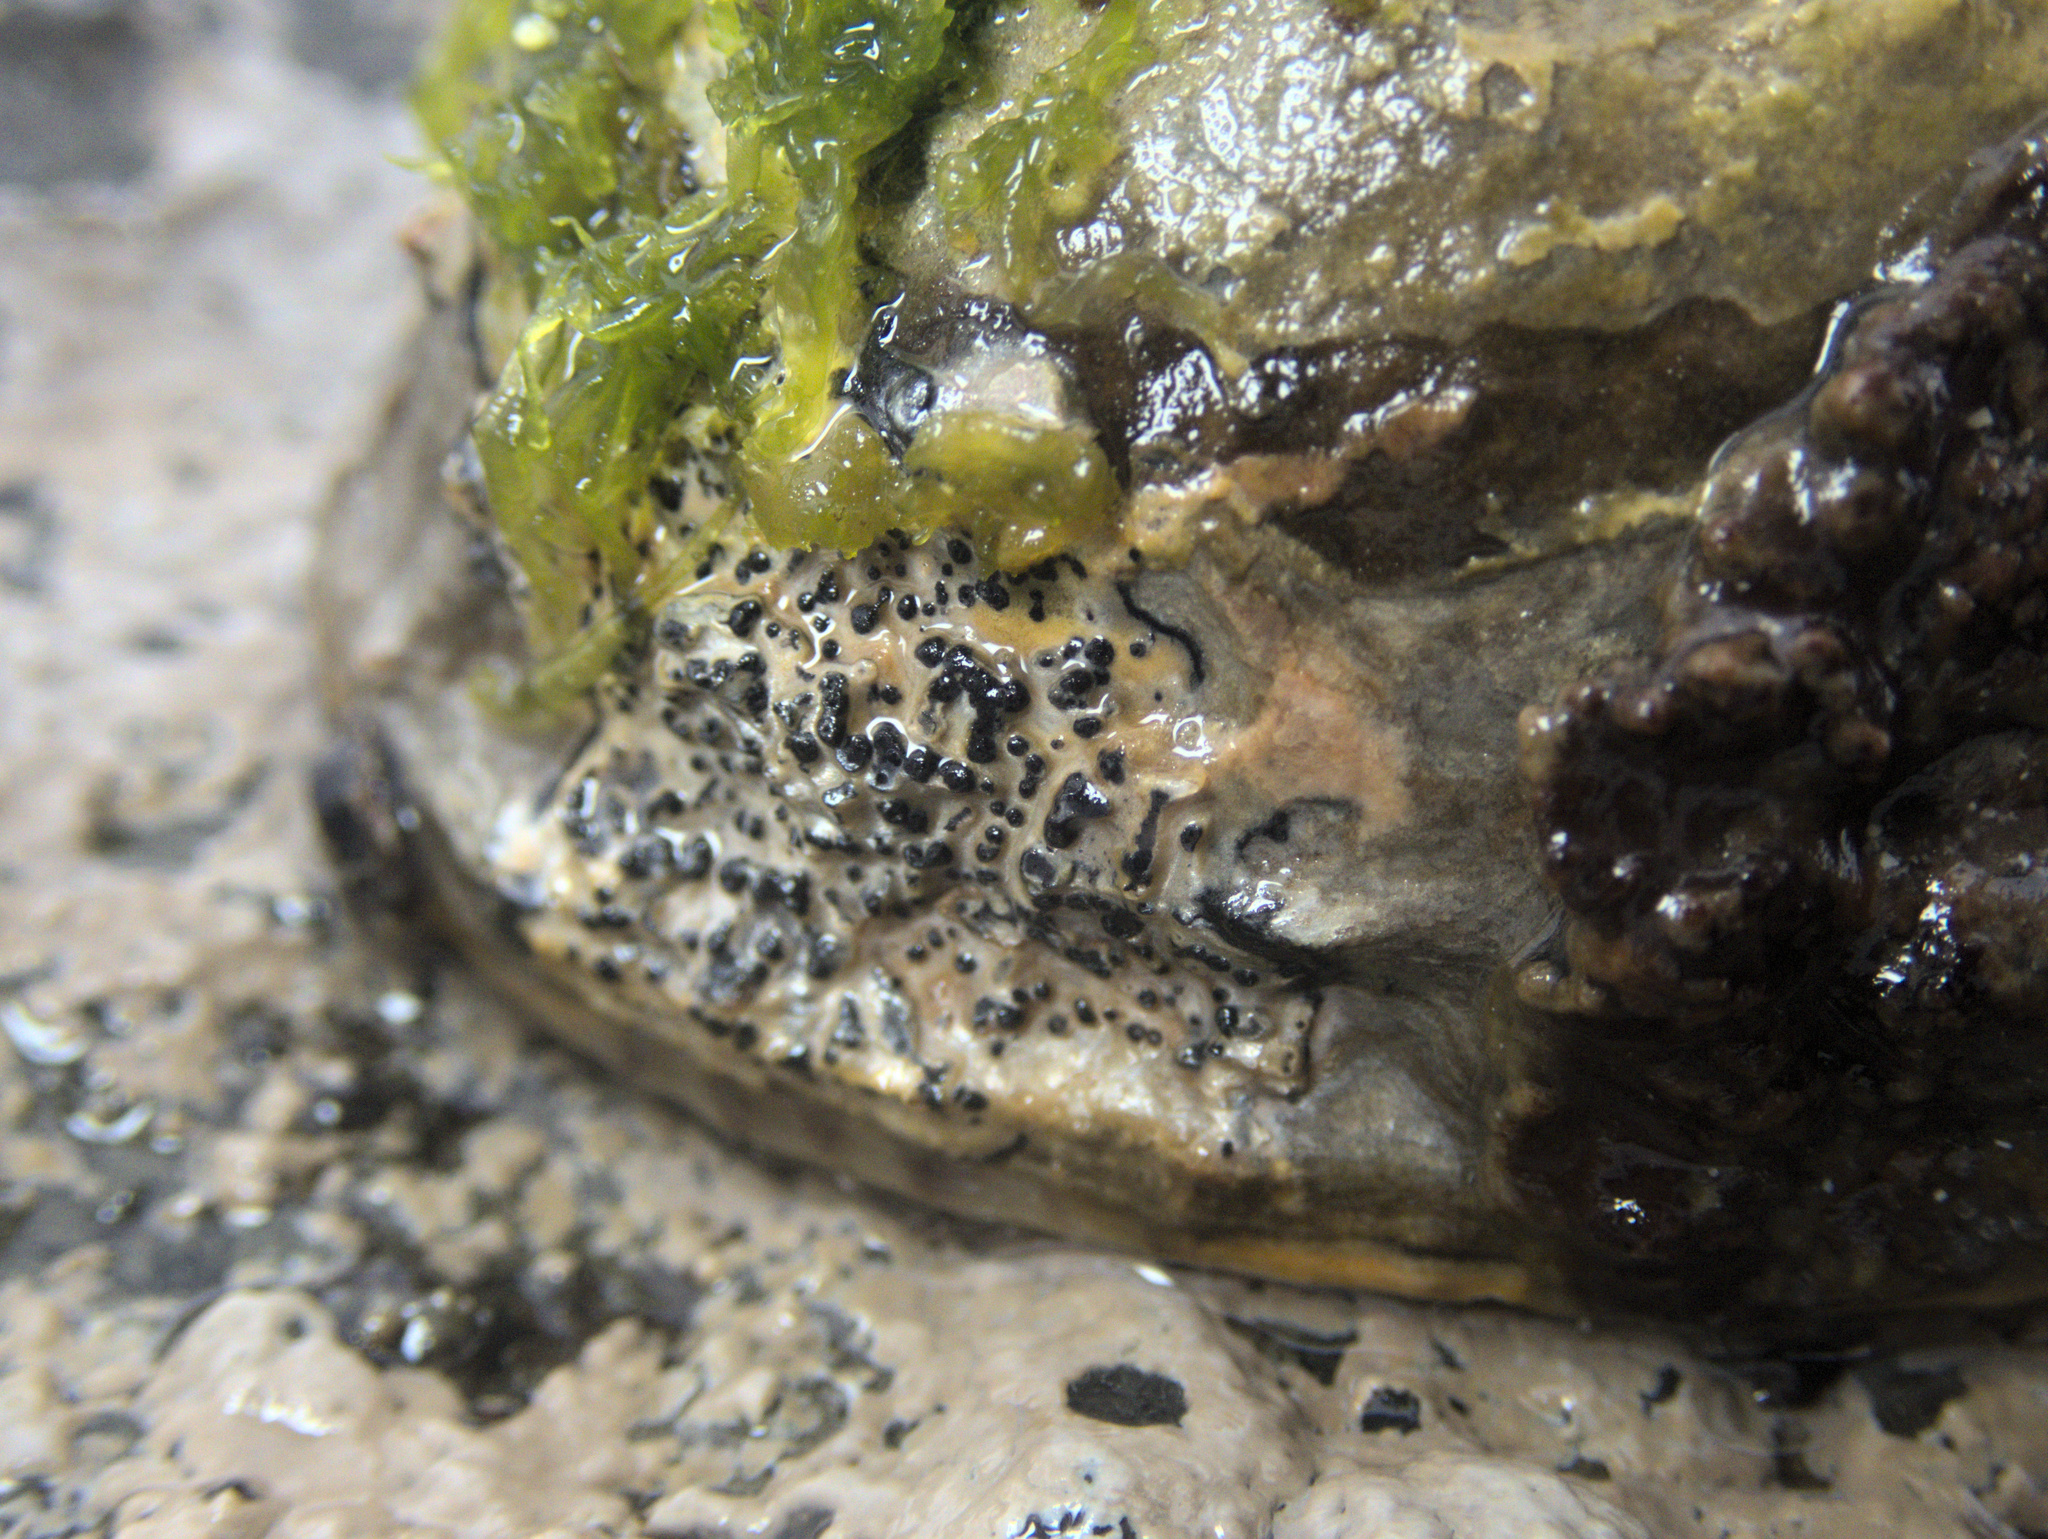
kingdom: Fungi
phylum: Ascomycota
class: Dothideomycetes
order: Collemopsidiales
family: Xanthopyreniaceae
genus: Collemopsidium
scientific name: Collemopsidium ostrearum
